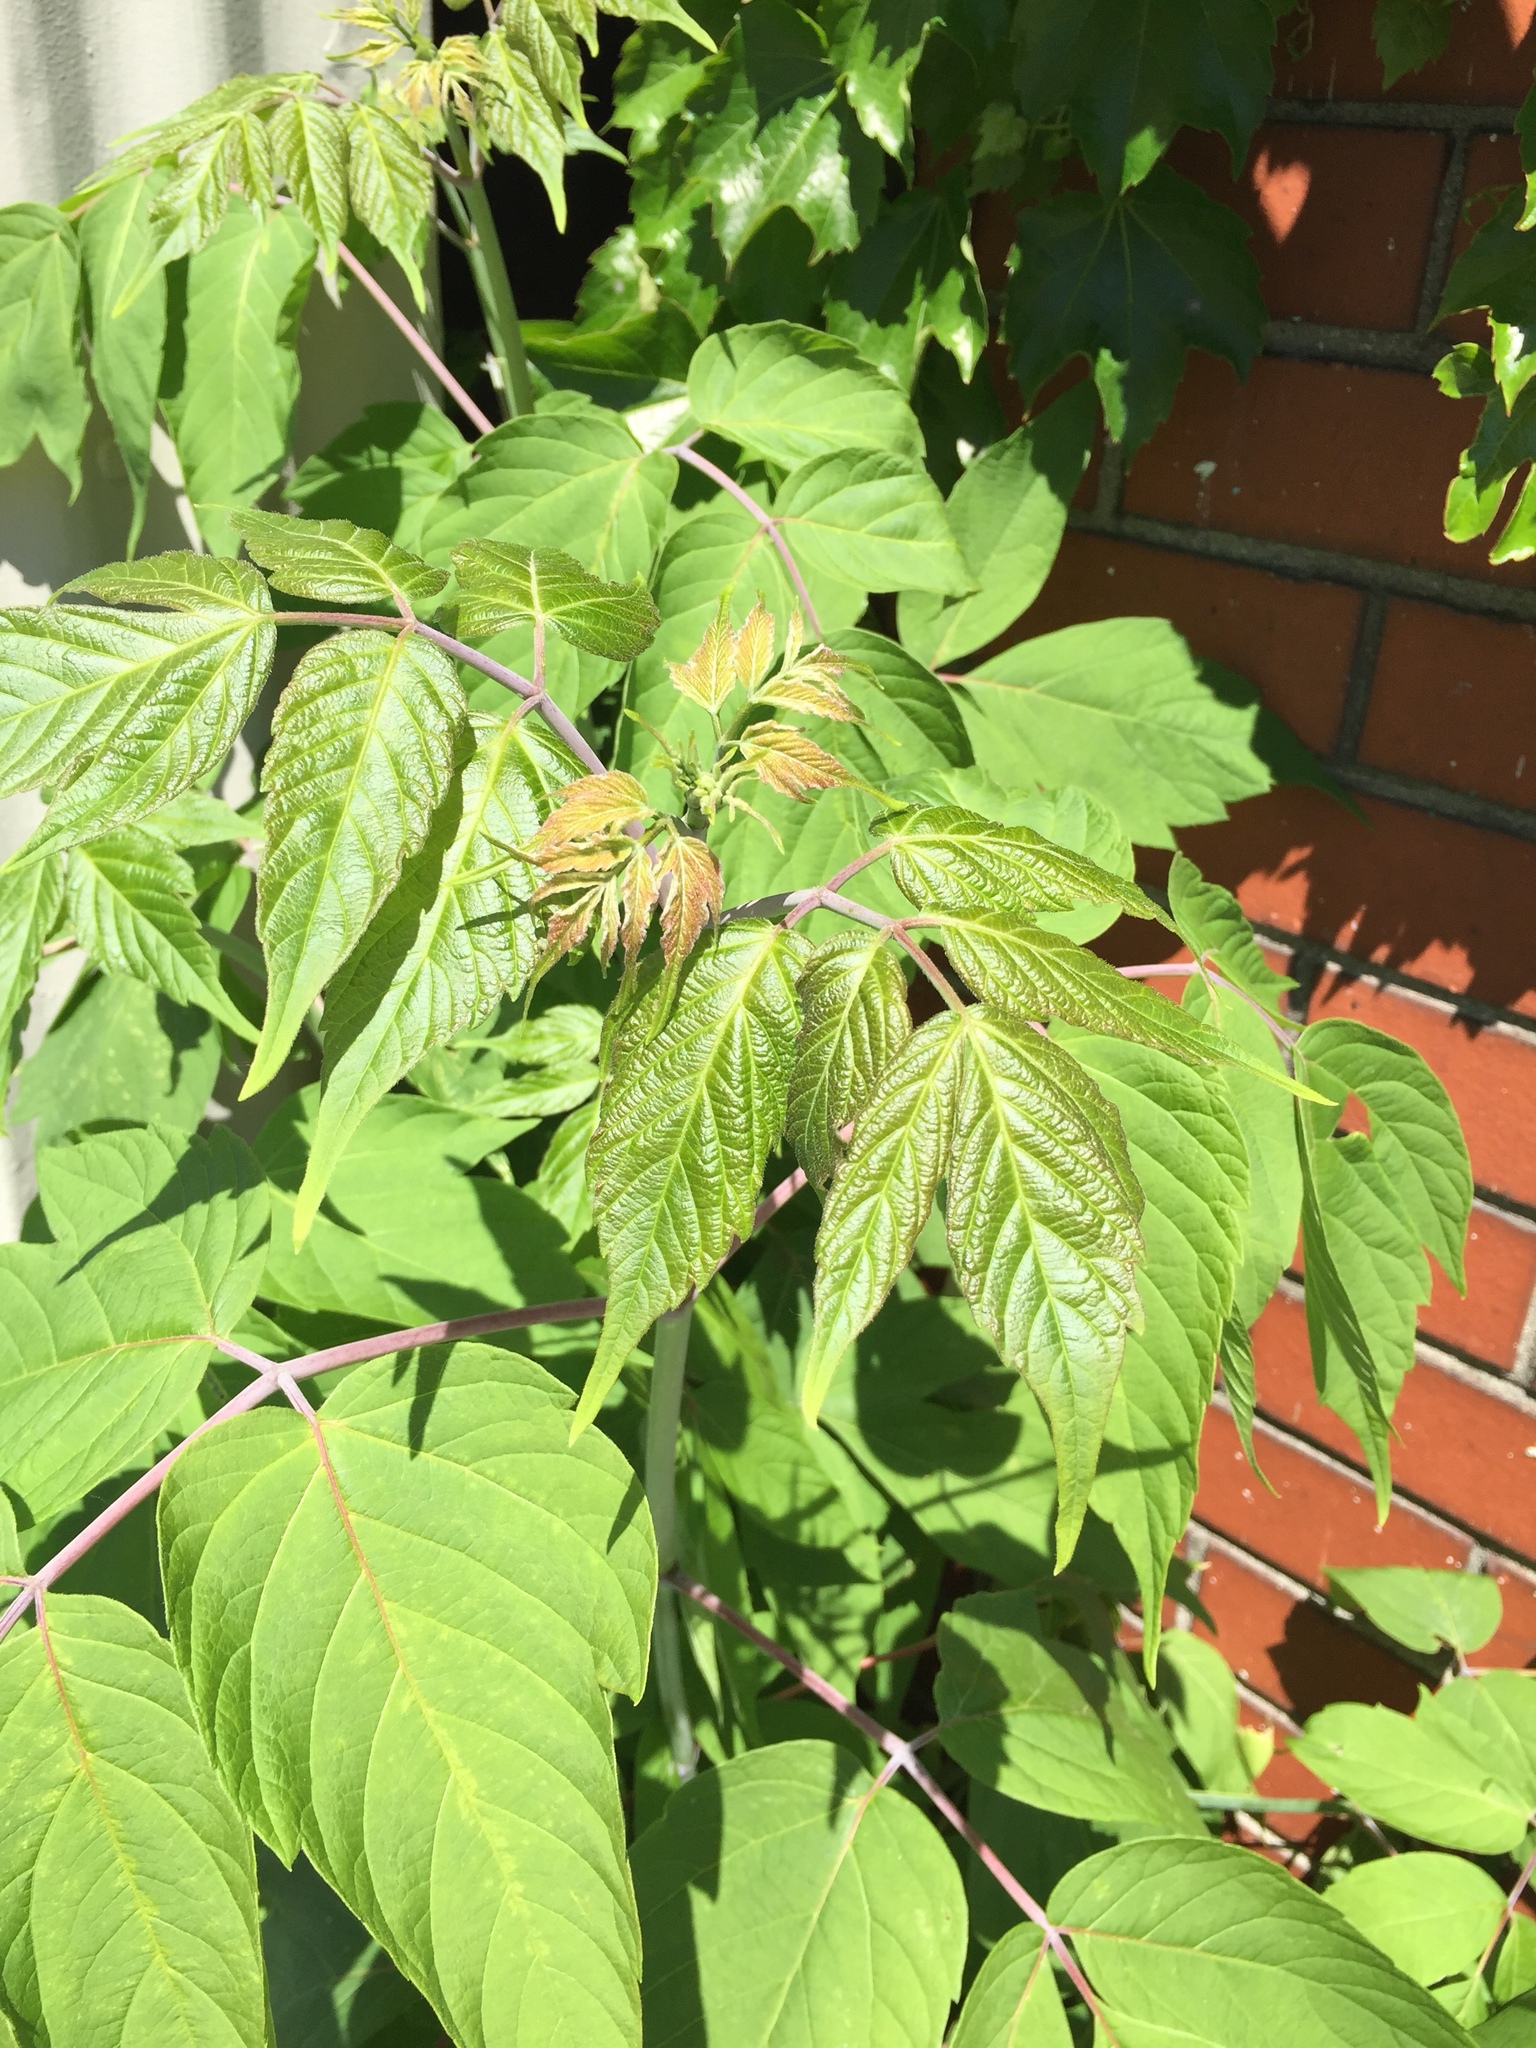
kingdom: Plantae
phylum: Tracheophyta
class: Magnoliopsida
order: Sapindales
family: Sapindaceae
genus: Acer
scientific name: Acer negundo
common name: Ashleaf maple
